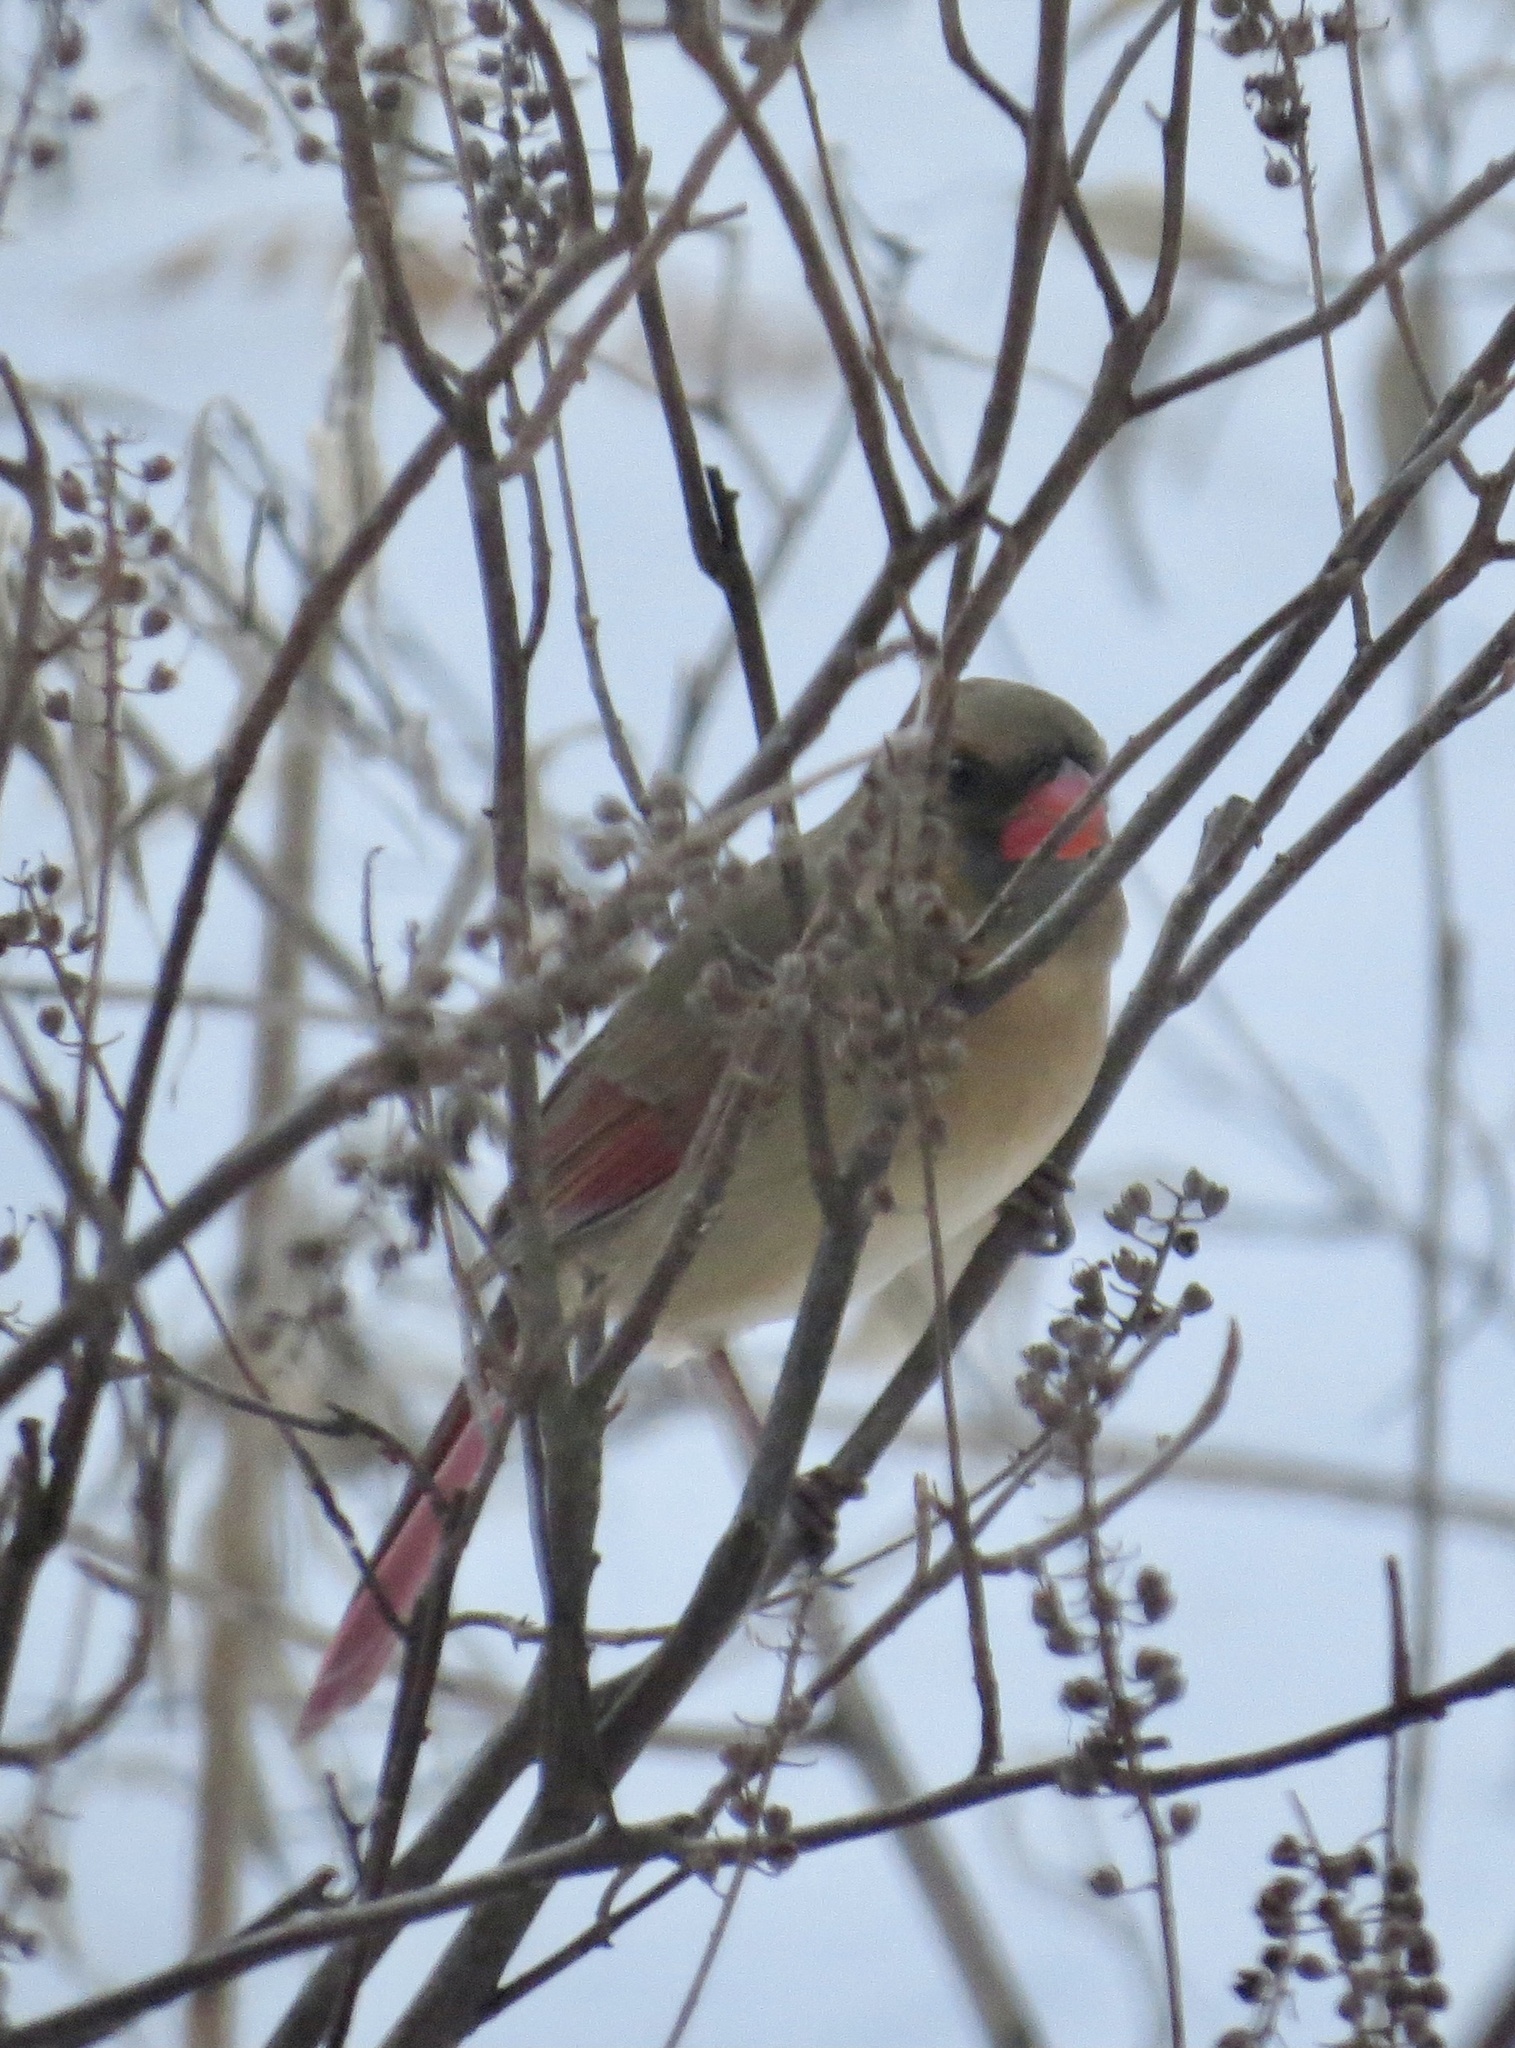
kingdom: Animalia
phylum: Chordata
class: Aves
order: Passeriformes
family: Cardinalidae
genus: Cardinalis
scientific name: Cardinalis cardinalis
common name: Northern cardinal
